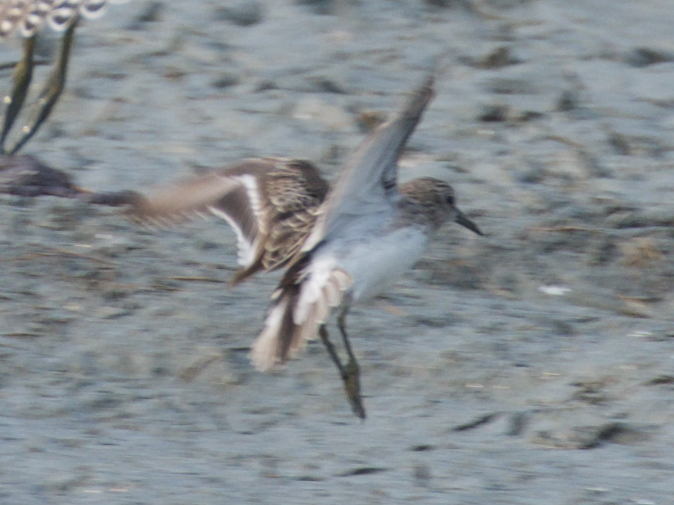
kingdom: Animalia
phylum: Chordata
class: Aves
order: Charadriiformes
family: Scolopacidae
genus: Calidris
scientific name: Calidris minutilla
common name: Least sandpiper
